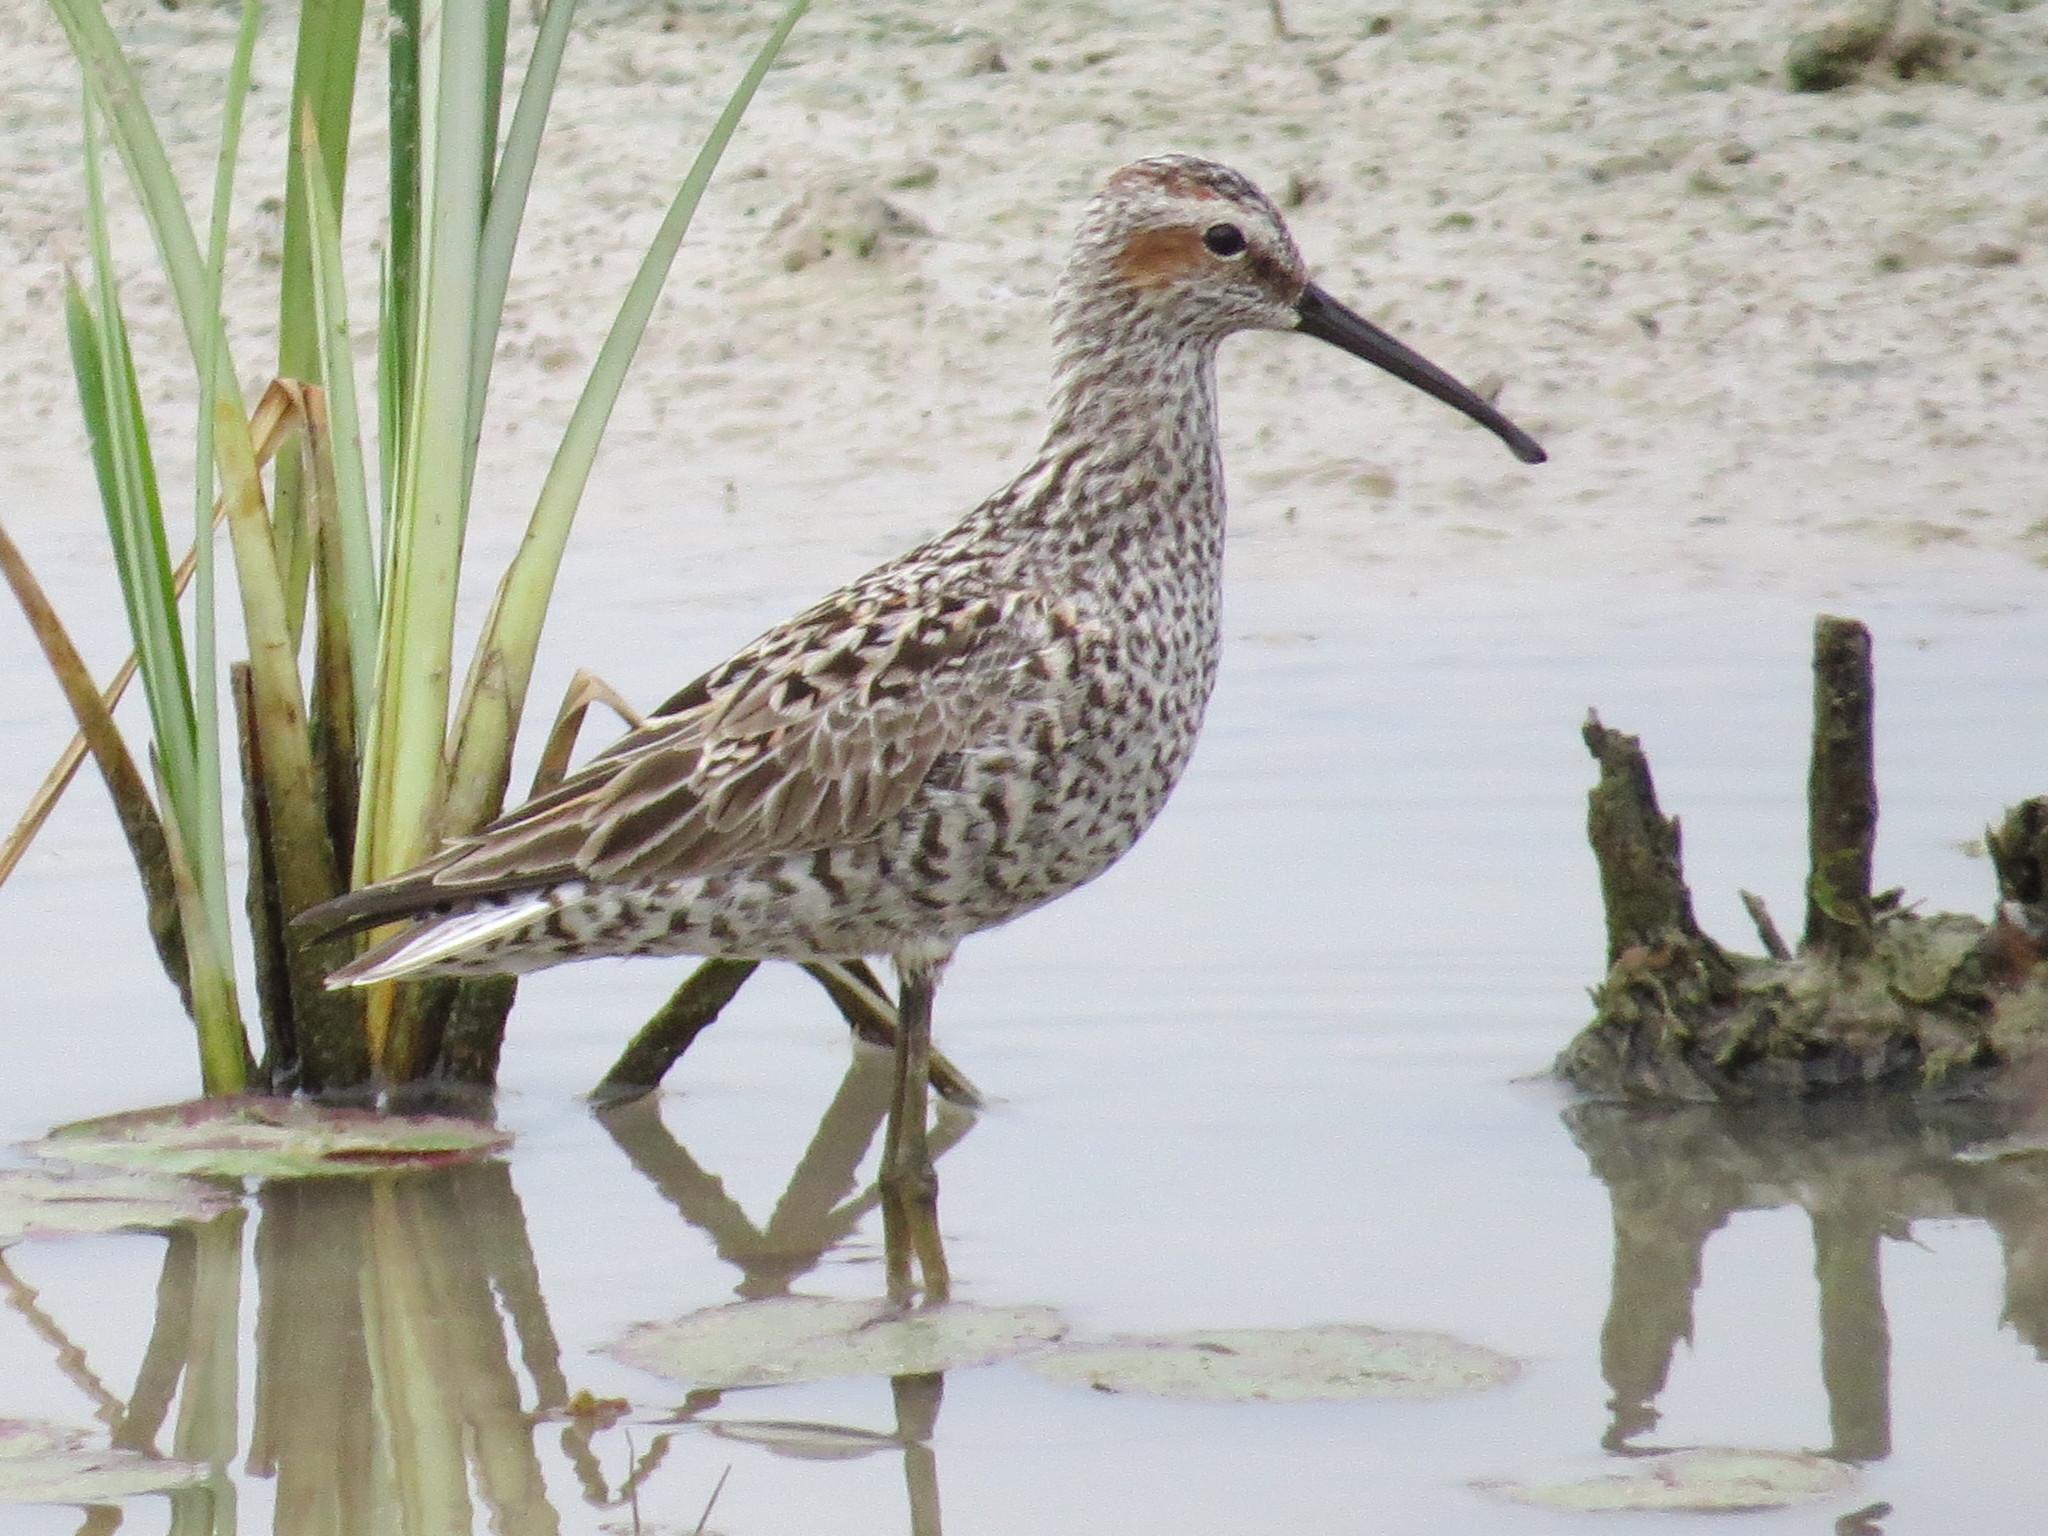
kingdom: Animalia
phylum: Chordata
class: Aves
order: Charadriiformes
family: Scolopacidae
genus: Calidris
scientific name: Calidris himantopus
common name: Stilt sandpiper
